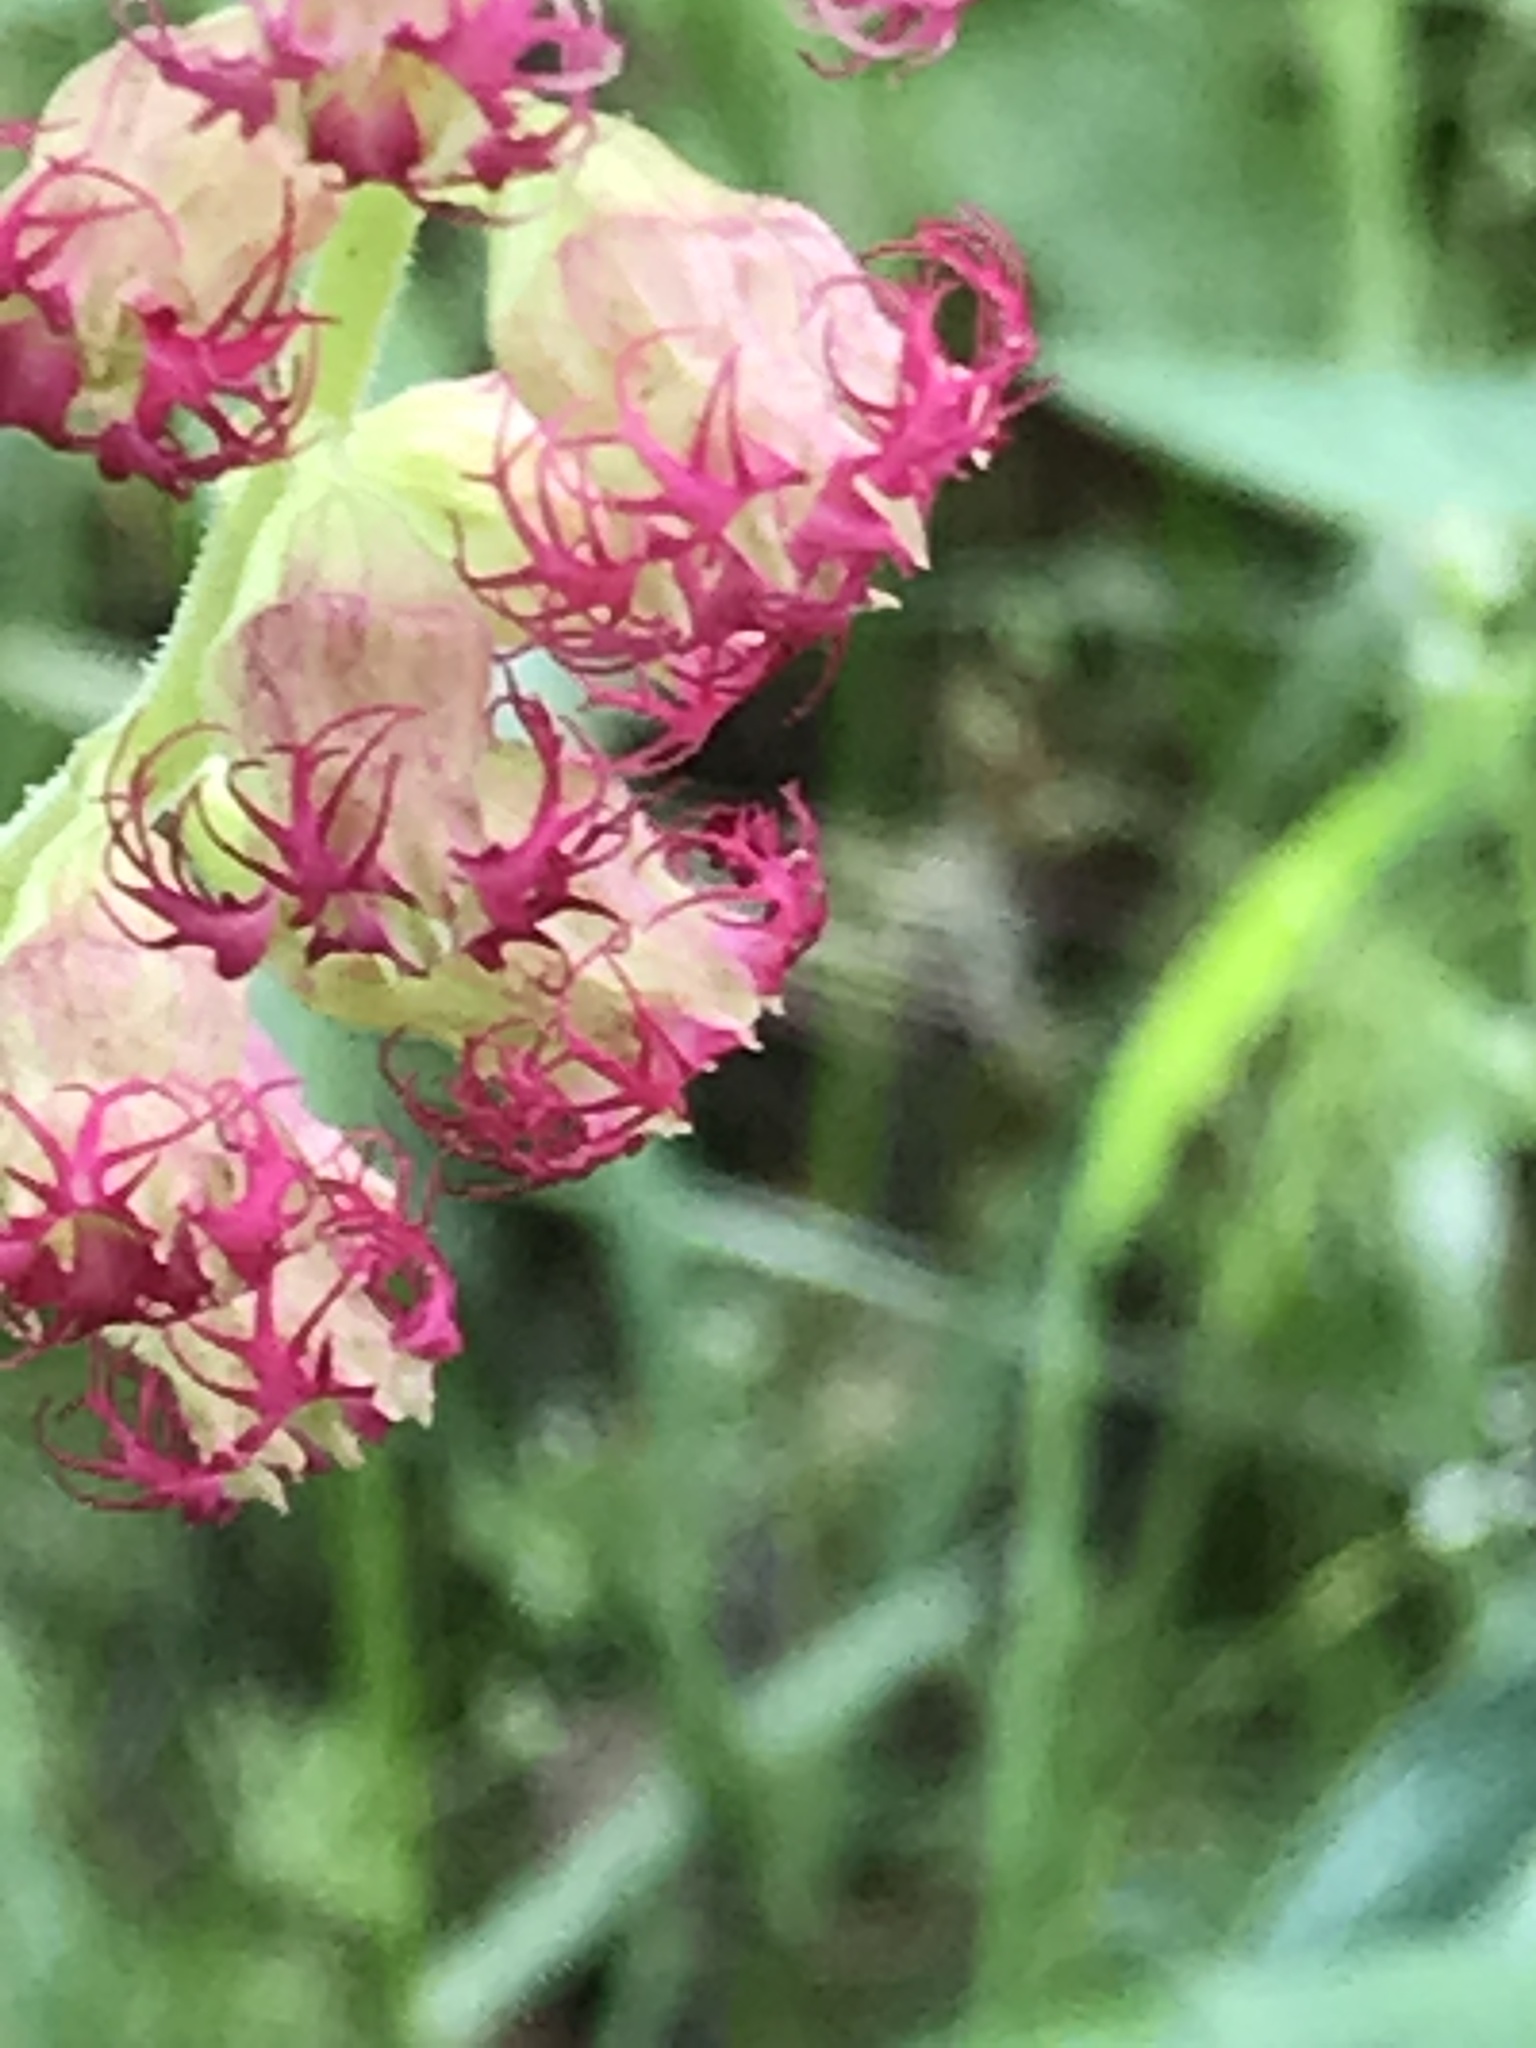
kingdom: Plantae
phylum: Tracheophyta
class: Magnoliopsida
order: Saxifragales
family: Saxifragaceae
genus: Tellima
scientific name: Tellima grandiflora
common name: Fringecups
